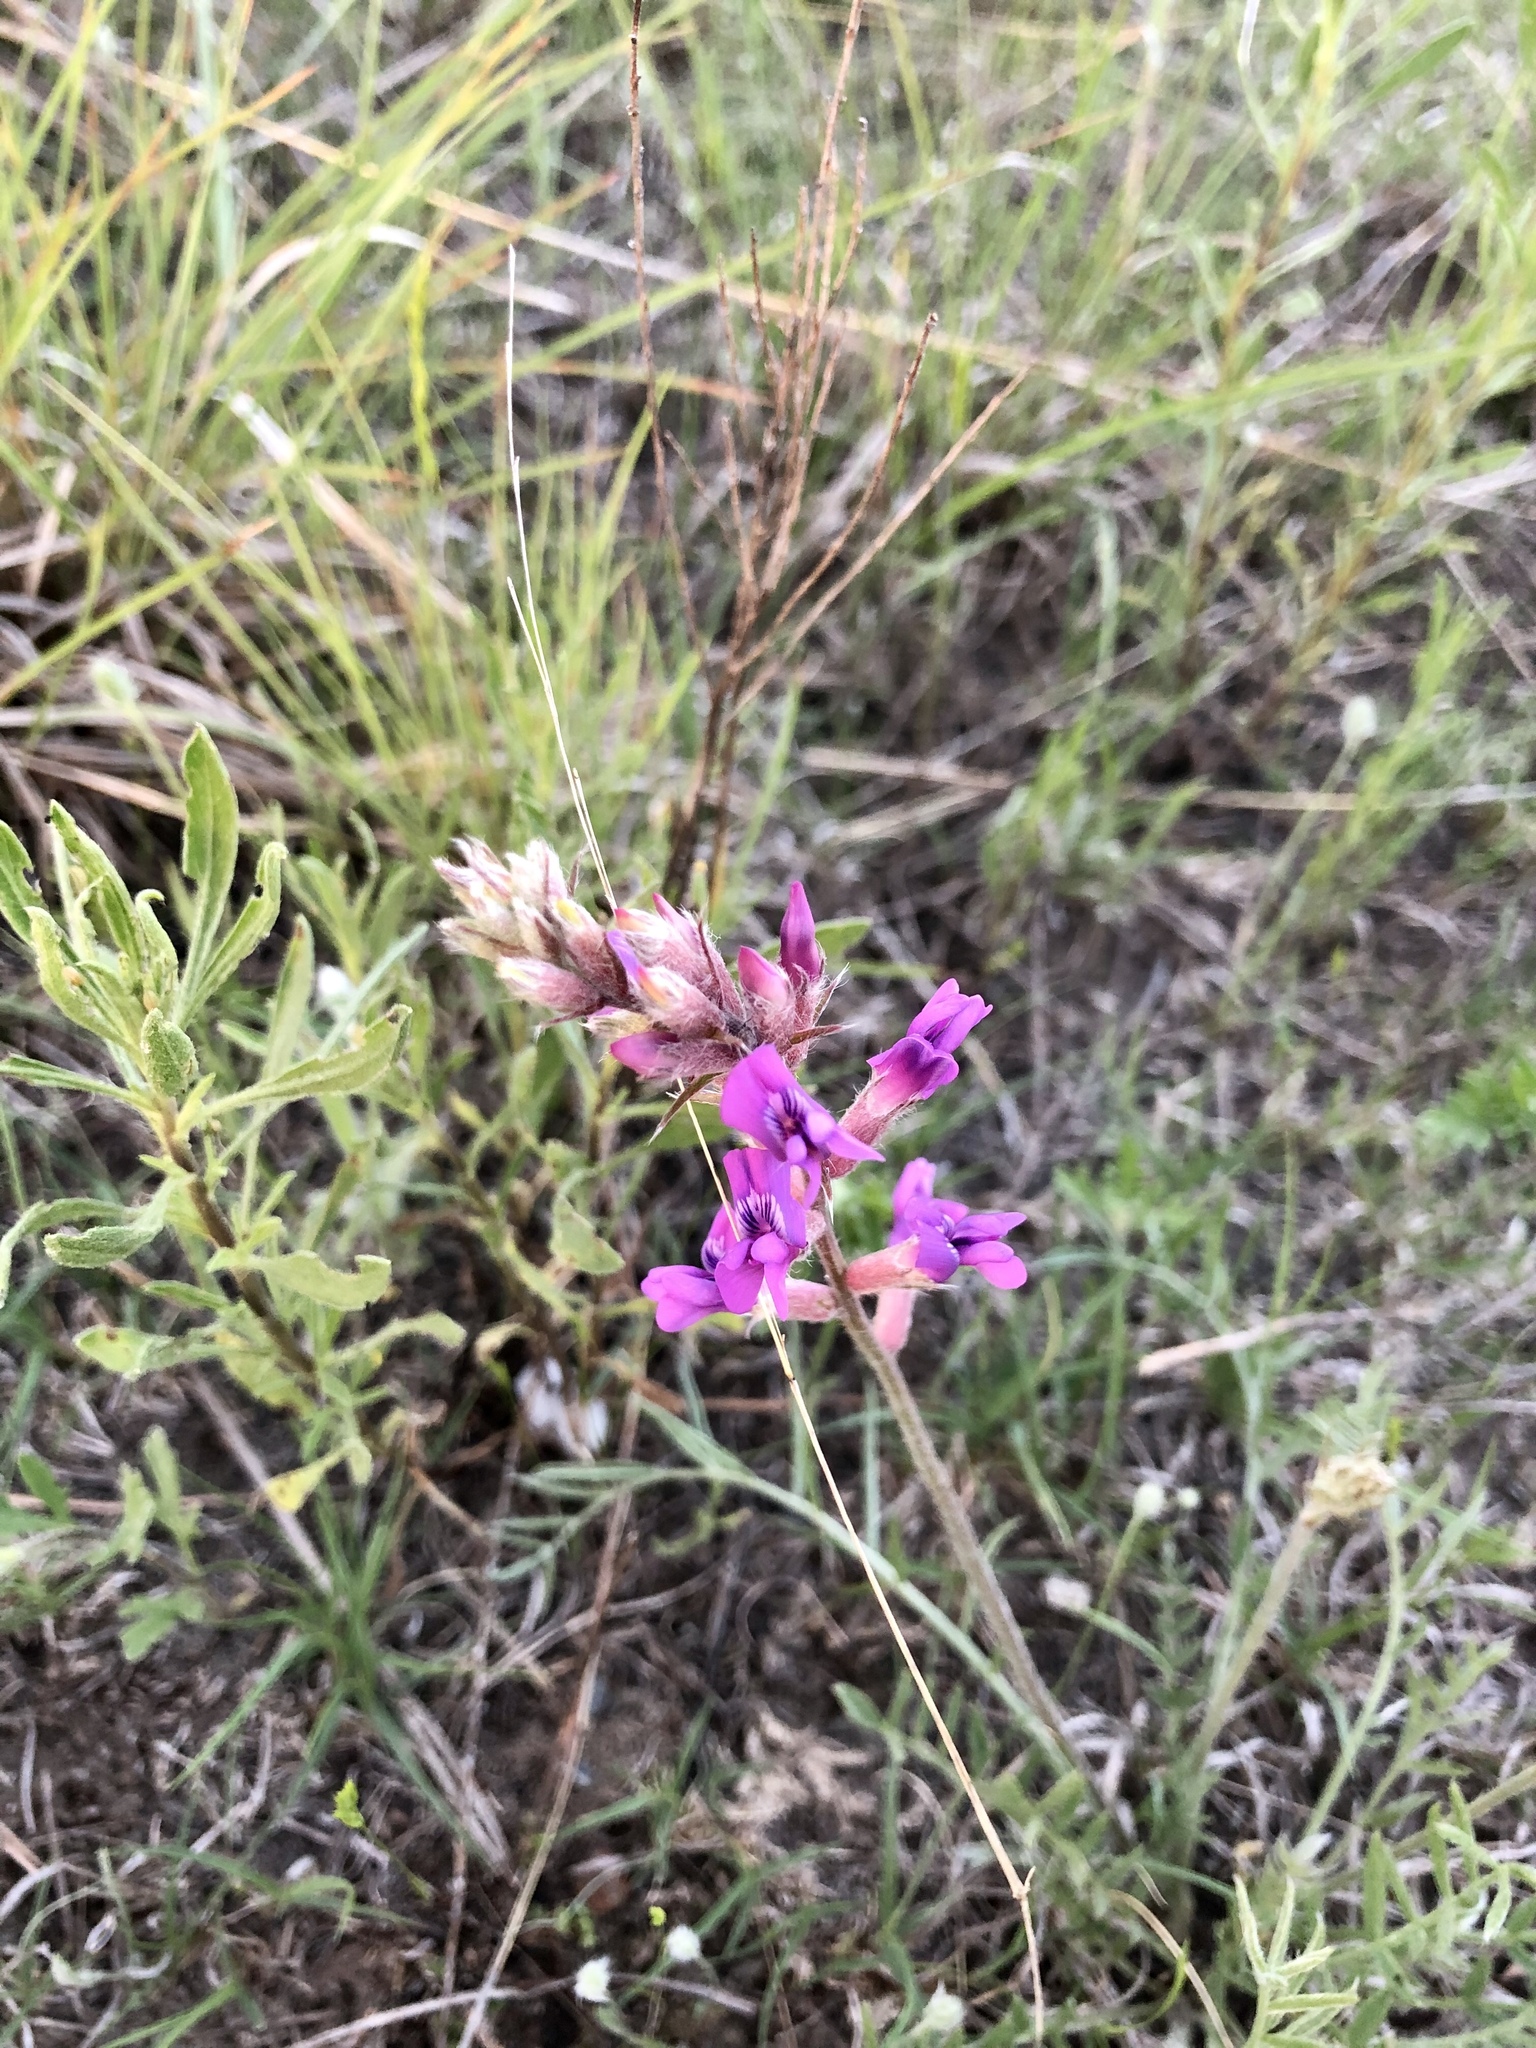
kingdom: Plantae
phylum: Tracheophyta
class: Magnoliopsida
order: Fabales
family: Fabaceae
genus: Oxytropis
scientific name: Oxytropis lambertii
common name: Purple locoweed
